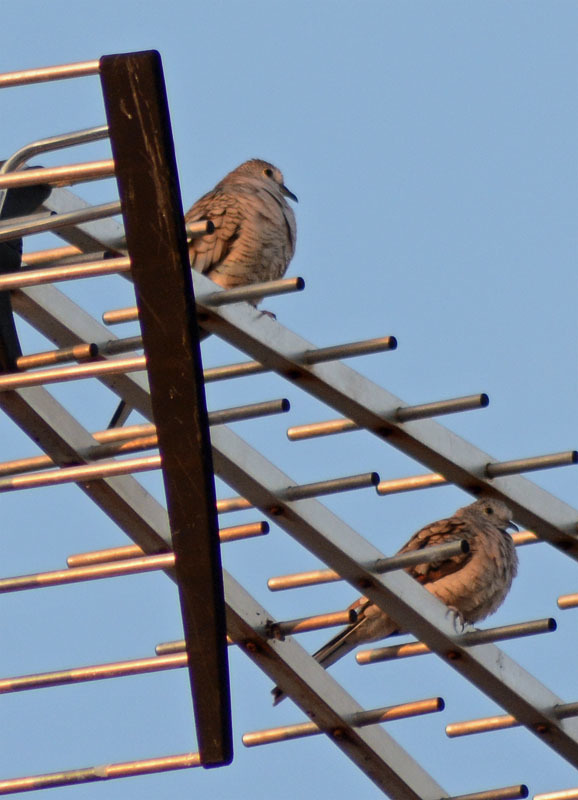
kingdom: Animalia
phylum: Chordata
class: Aves
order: Columbiformes
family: Columbidae
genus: Columbina
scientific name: Columbina inca
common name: Inca dove
